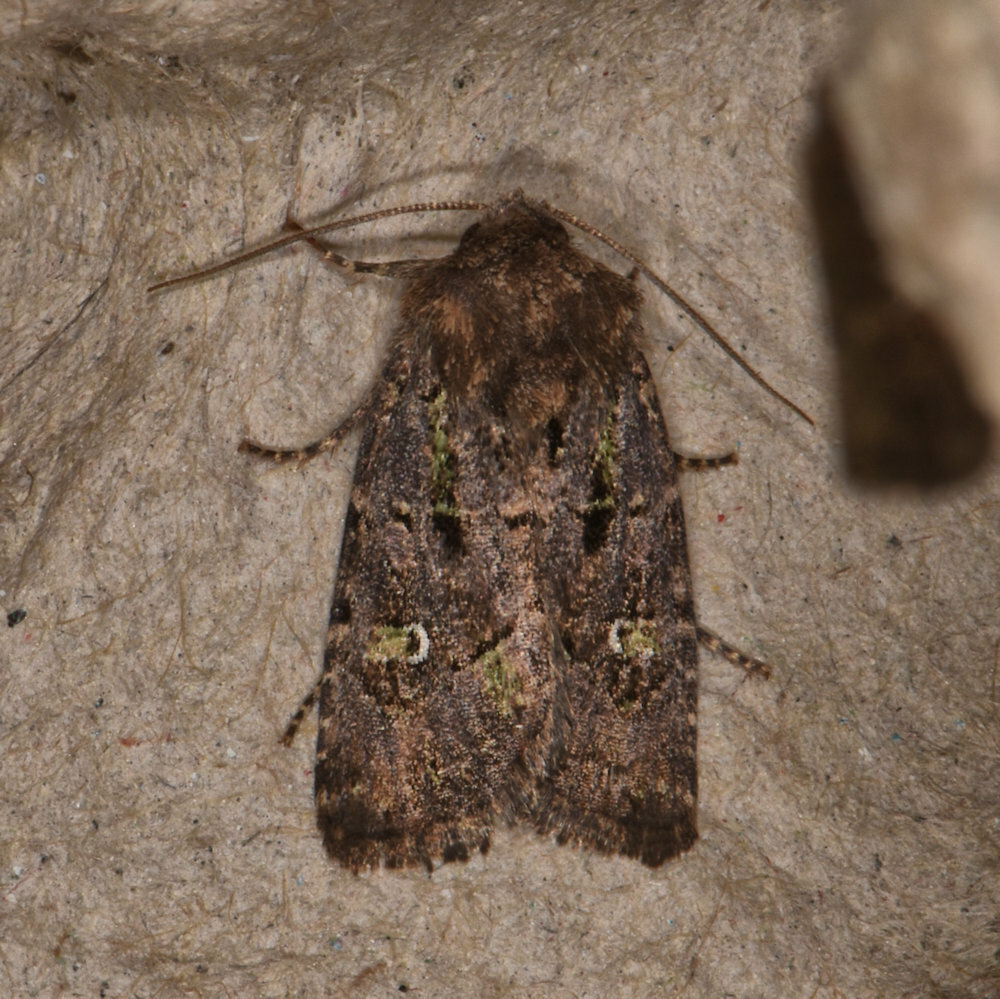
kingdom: Animalia
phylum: Arthropoda
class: Insecta
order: Lepidoptera
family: Noctuidae
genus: Lacinipolia
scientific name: Lacinipolia renigera
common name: Kidney-spotted minor
